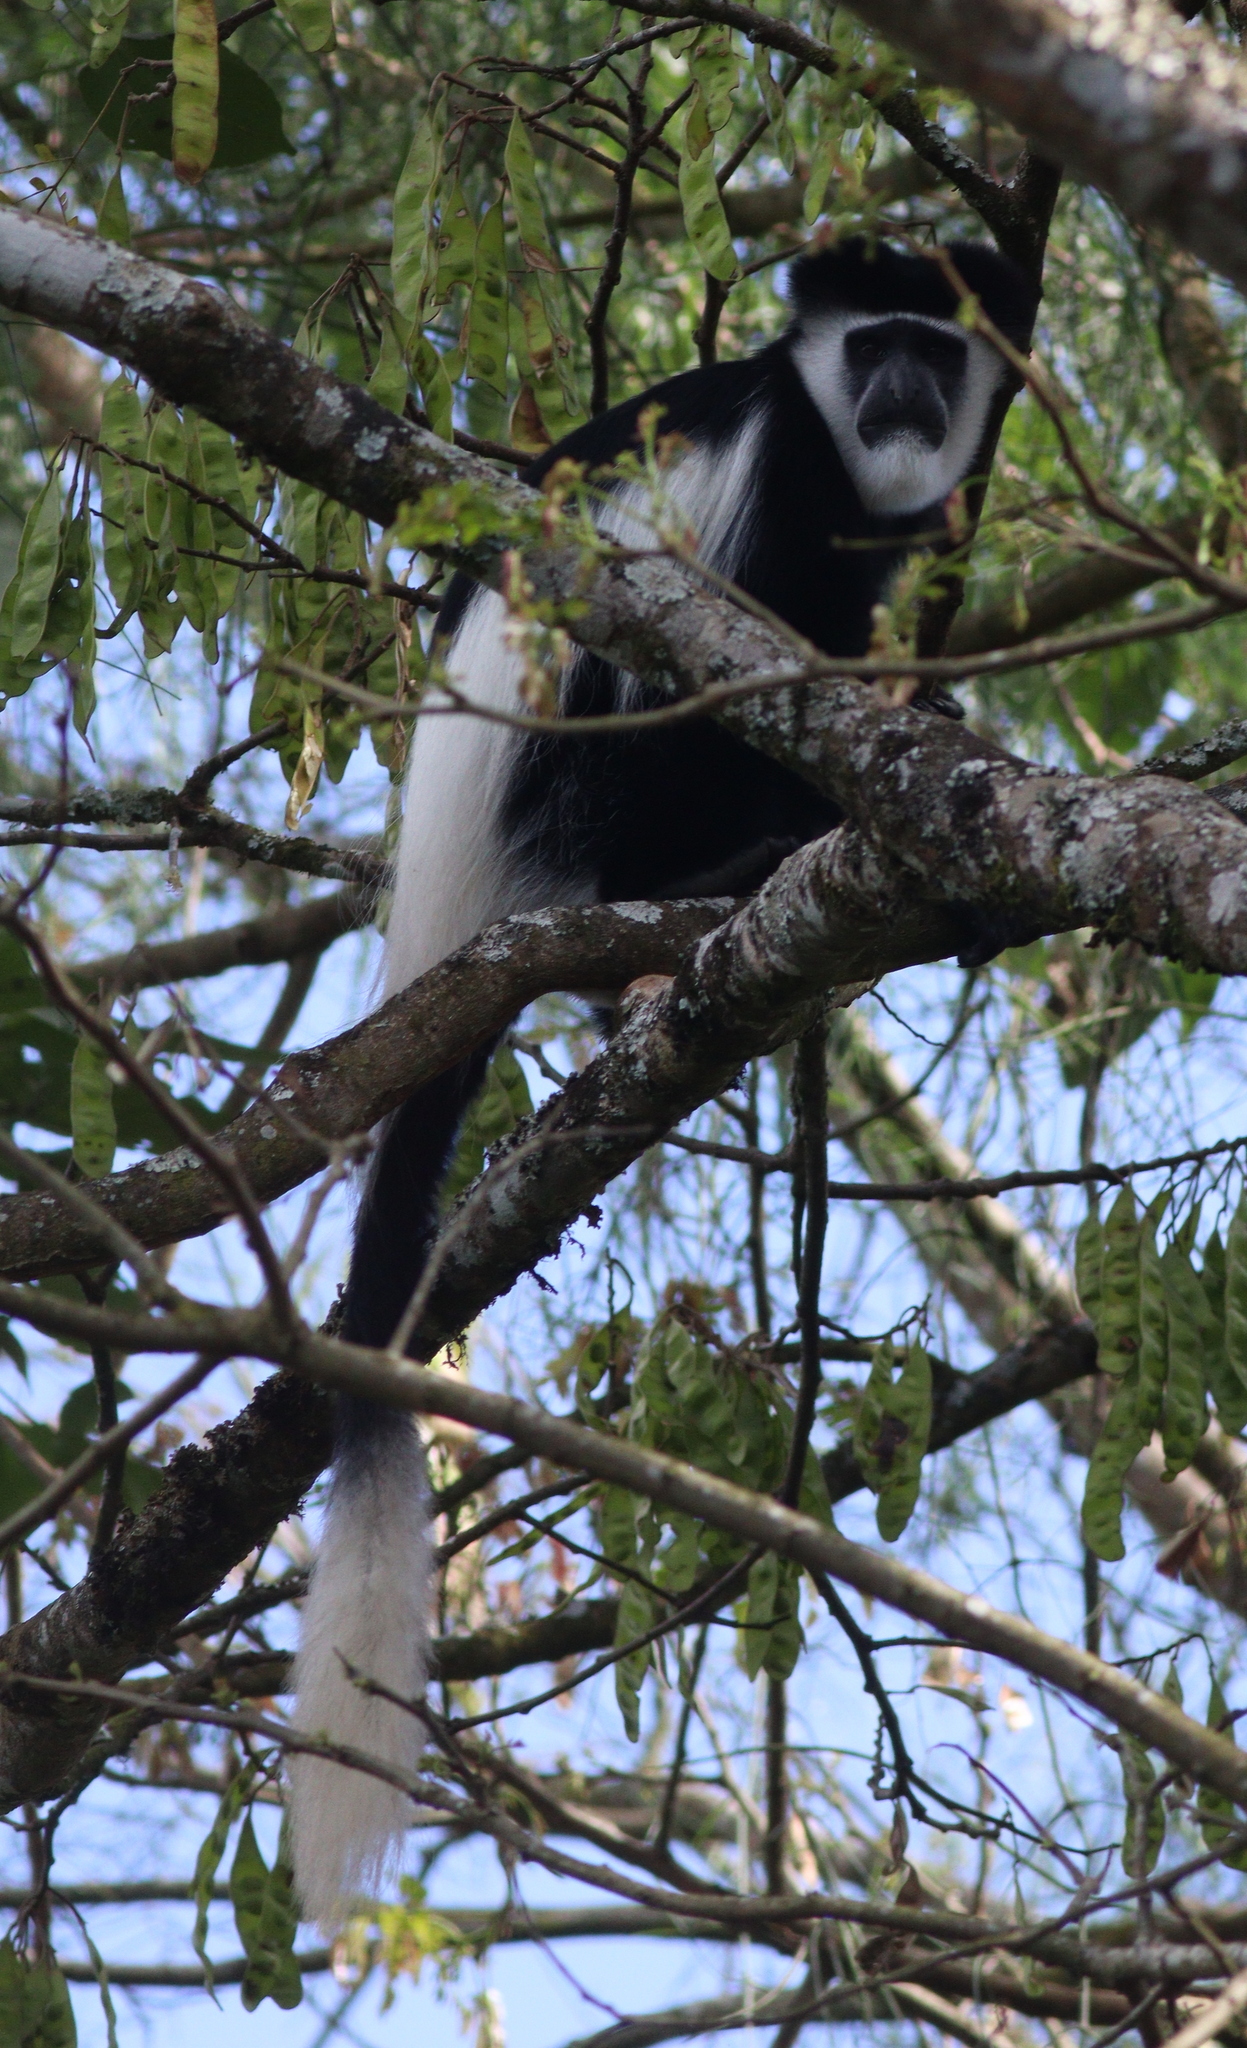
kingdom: Animalia
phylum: Chordata
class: Mammalia
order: Primates
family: Cercopithecidae
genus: Colobus
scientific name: Colobus guereza
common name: Mantled guereza
